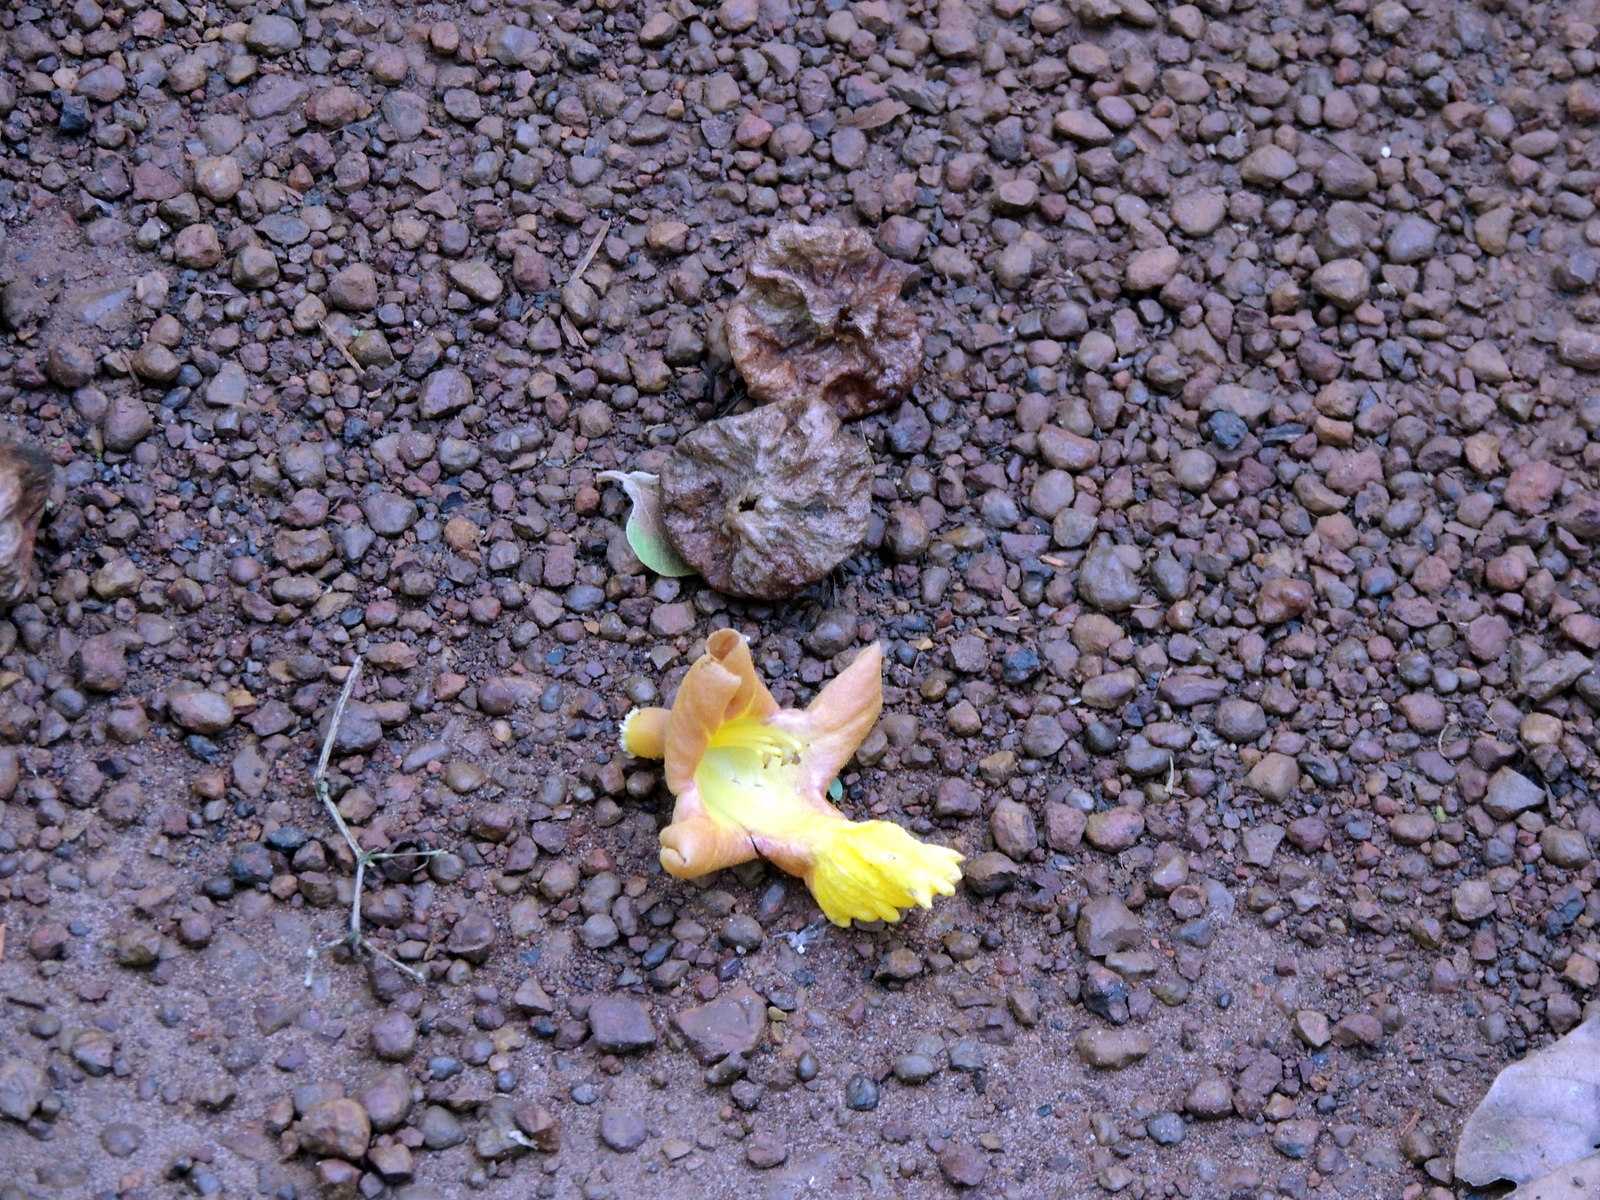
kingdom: Plantae
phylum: Tracheophyta
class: Magnoliopsida
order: Lamiales
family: Lamiaceae
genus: Gmelina
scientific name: Gmelina arborea
